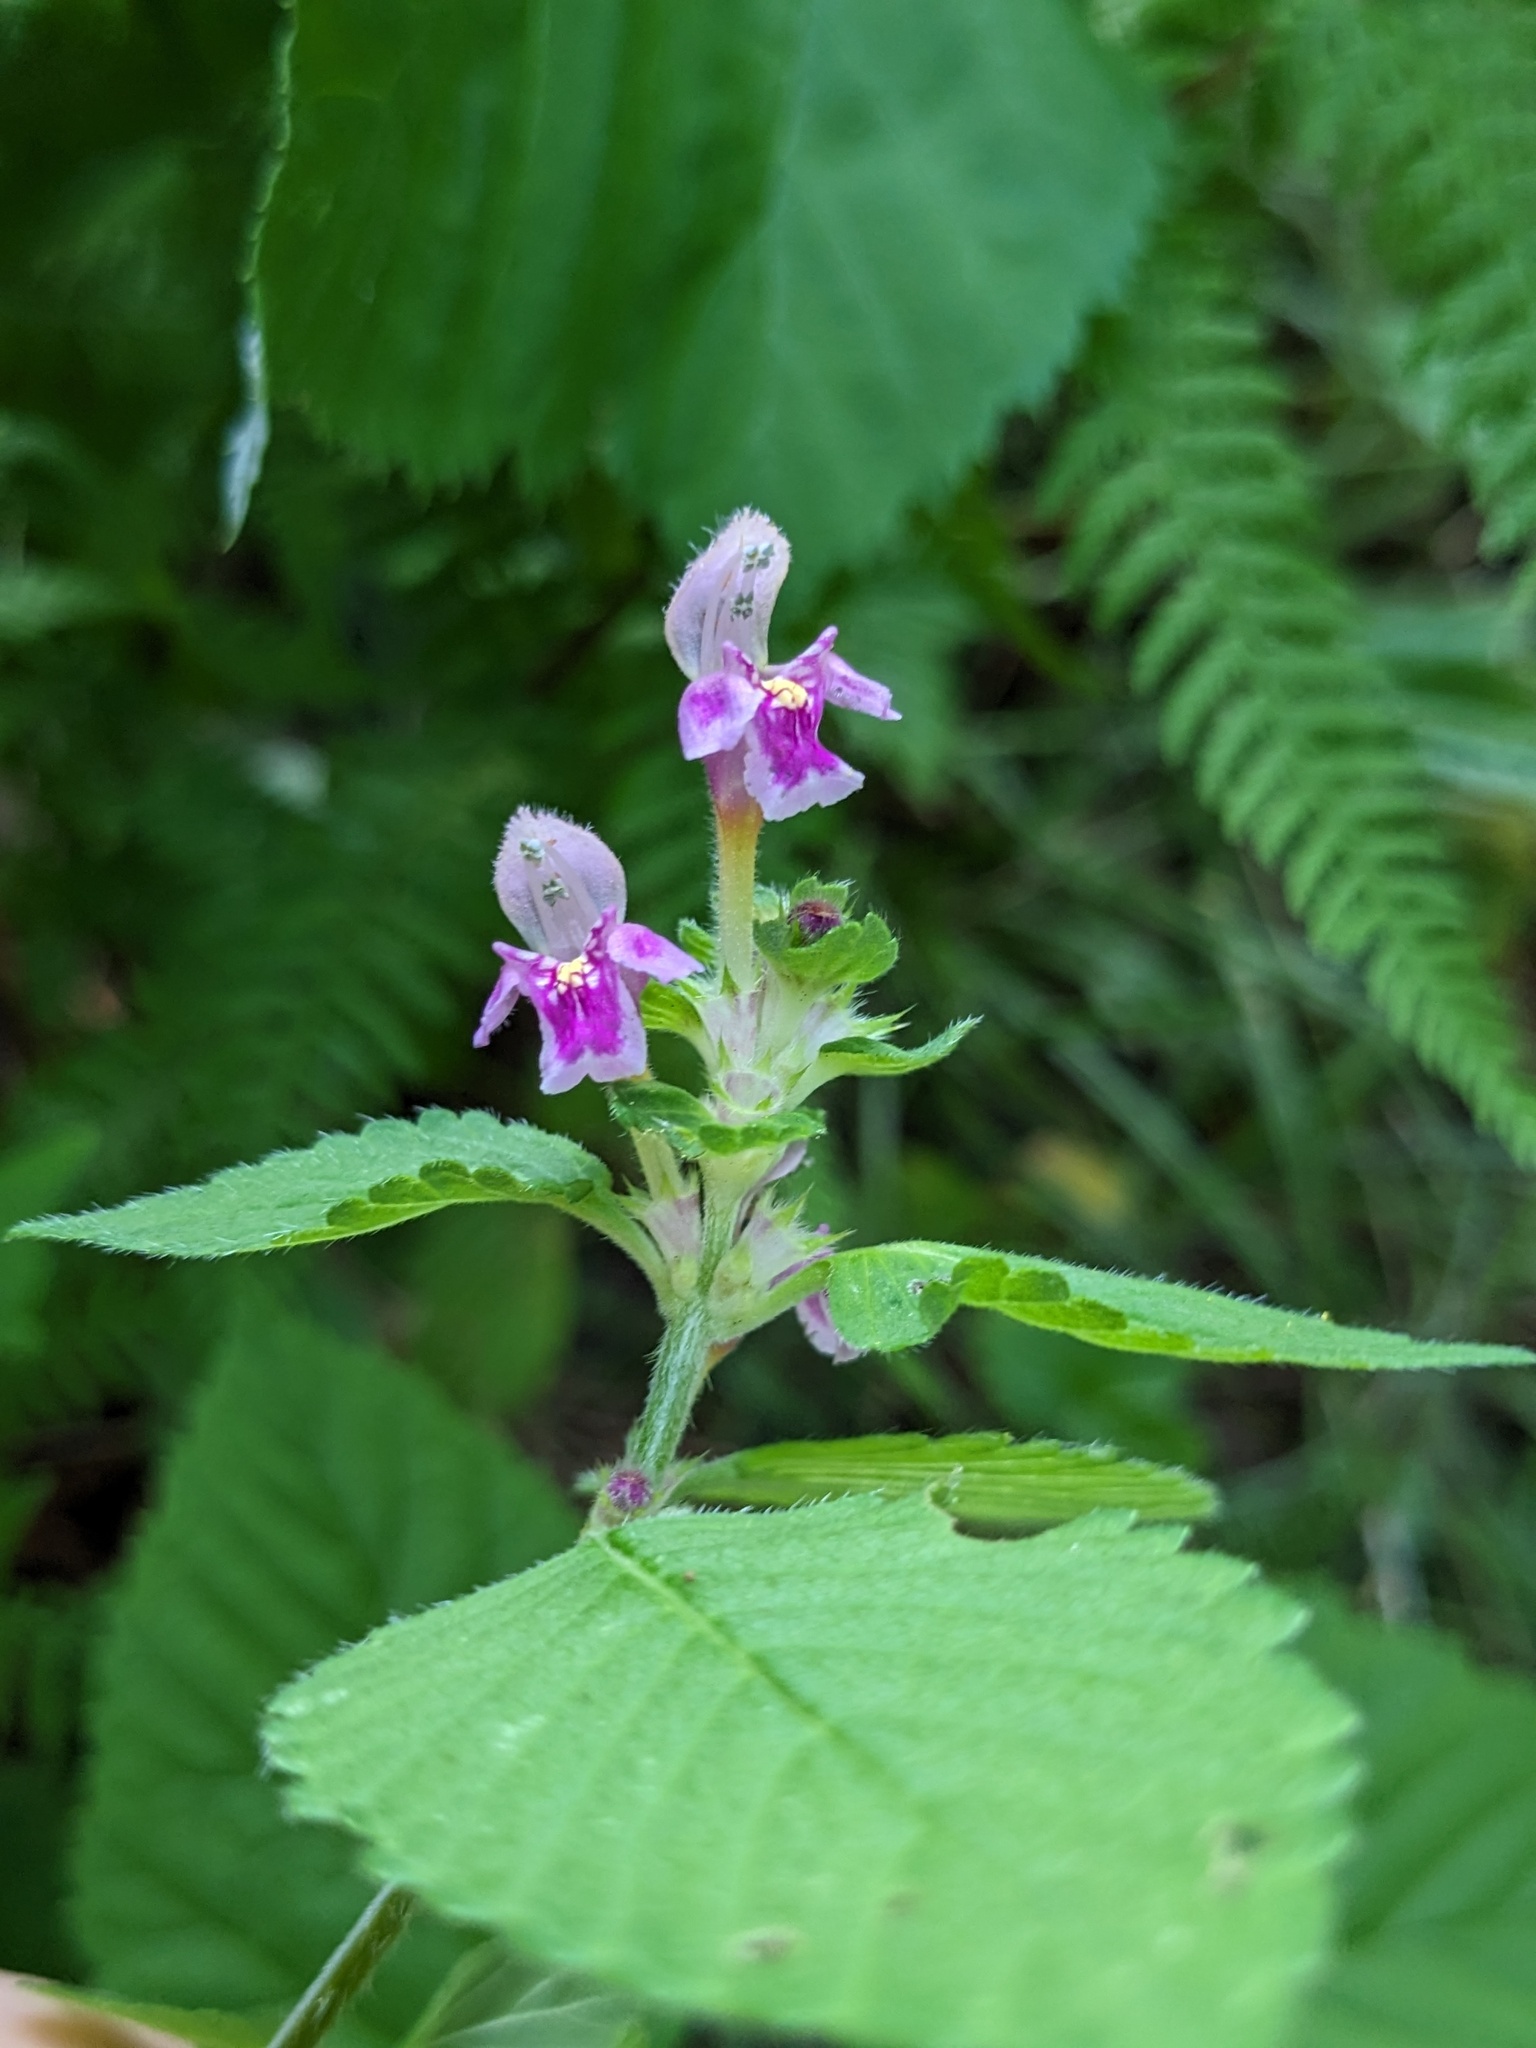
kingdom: Plantae
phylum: Tracheophyta
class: Magnoliopsida
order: Lamiales
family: Lamiaceae
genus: Galeopsis
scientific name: Galeopsis pubescens
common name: Downy hemp-nettle
